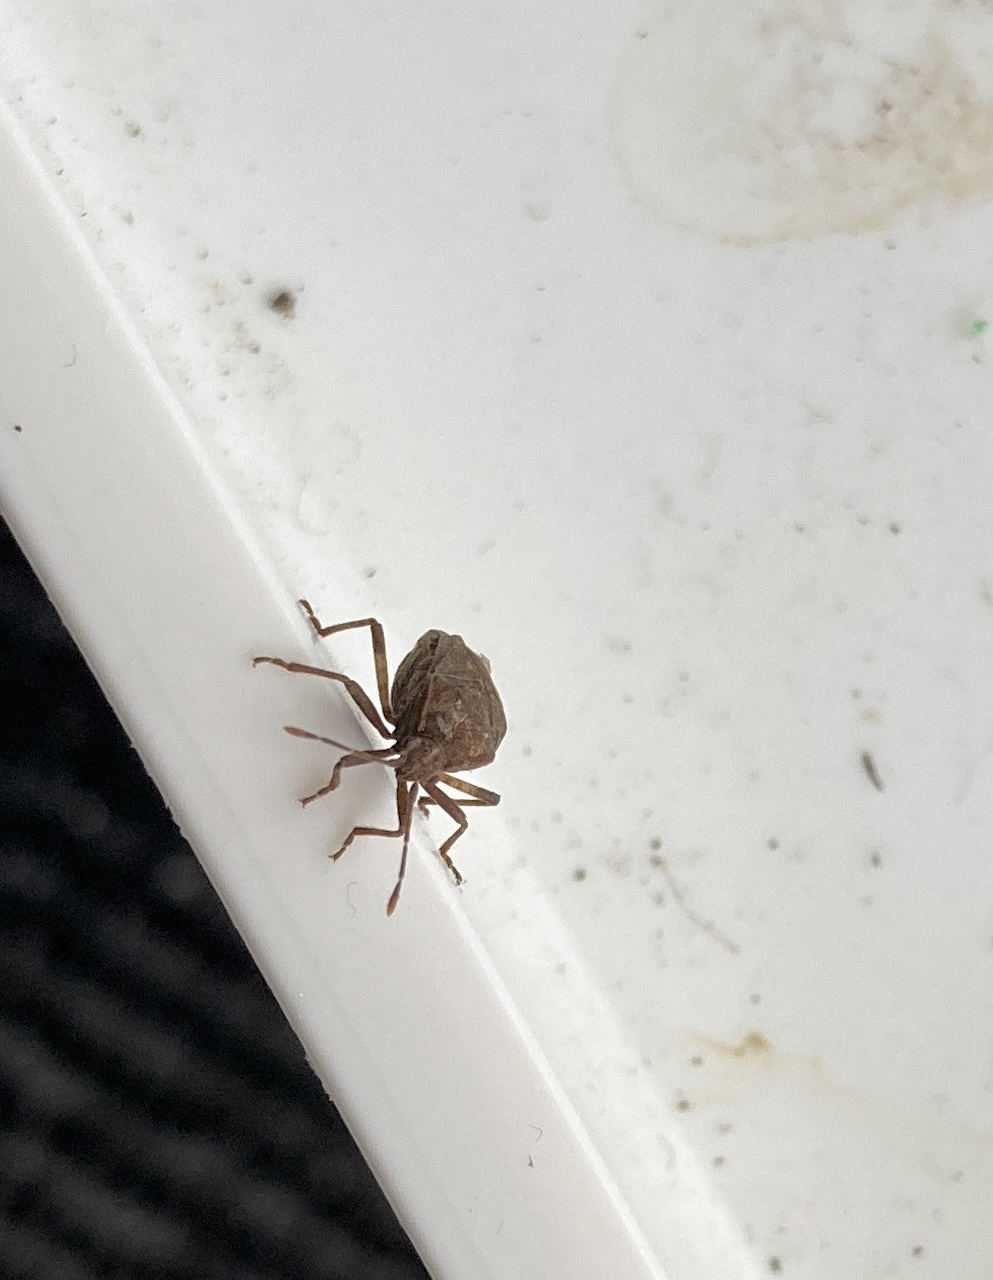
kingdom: Animalia
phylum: Arthropoda
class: Insecta
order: Hemiptera
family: Coreidae
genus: Acantholybas
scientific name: Acantholybas brunneus
